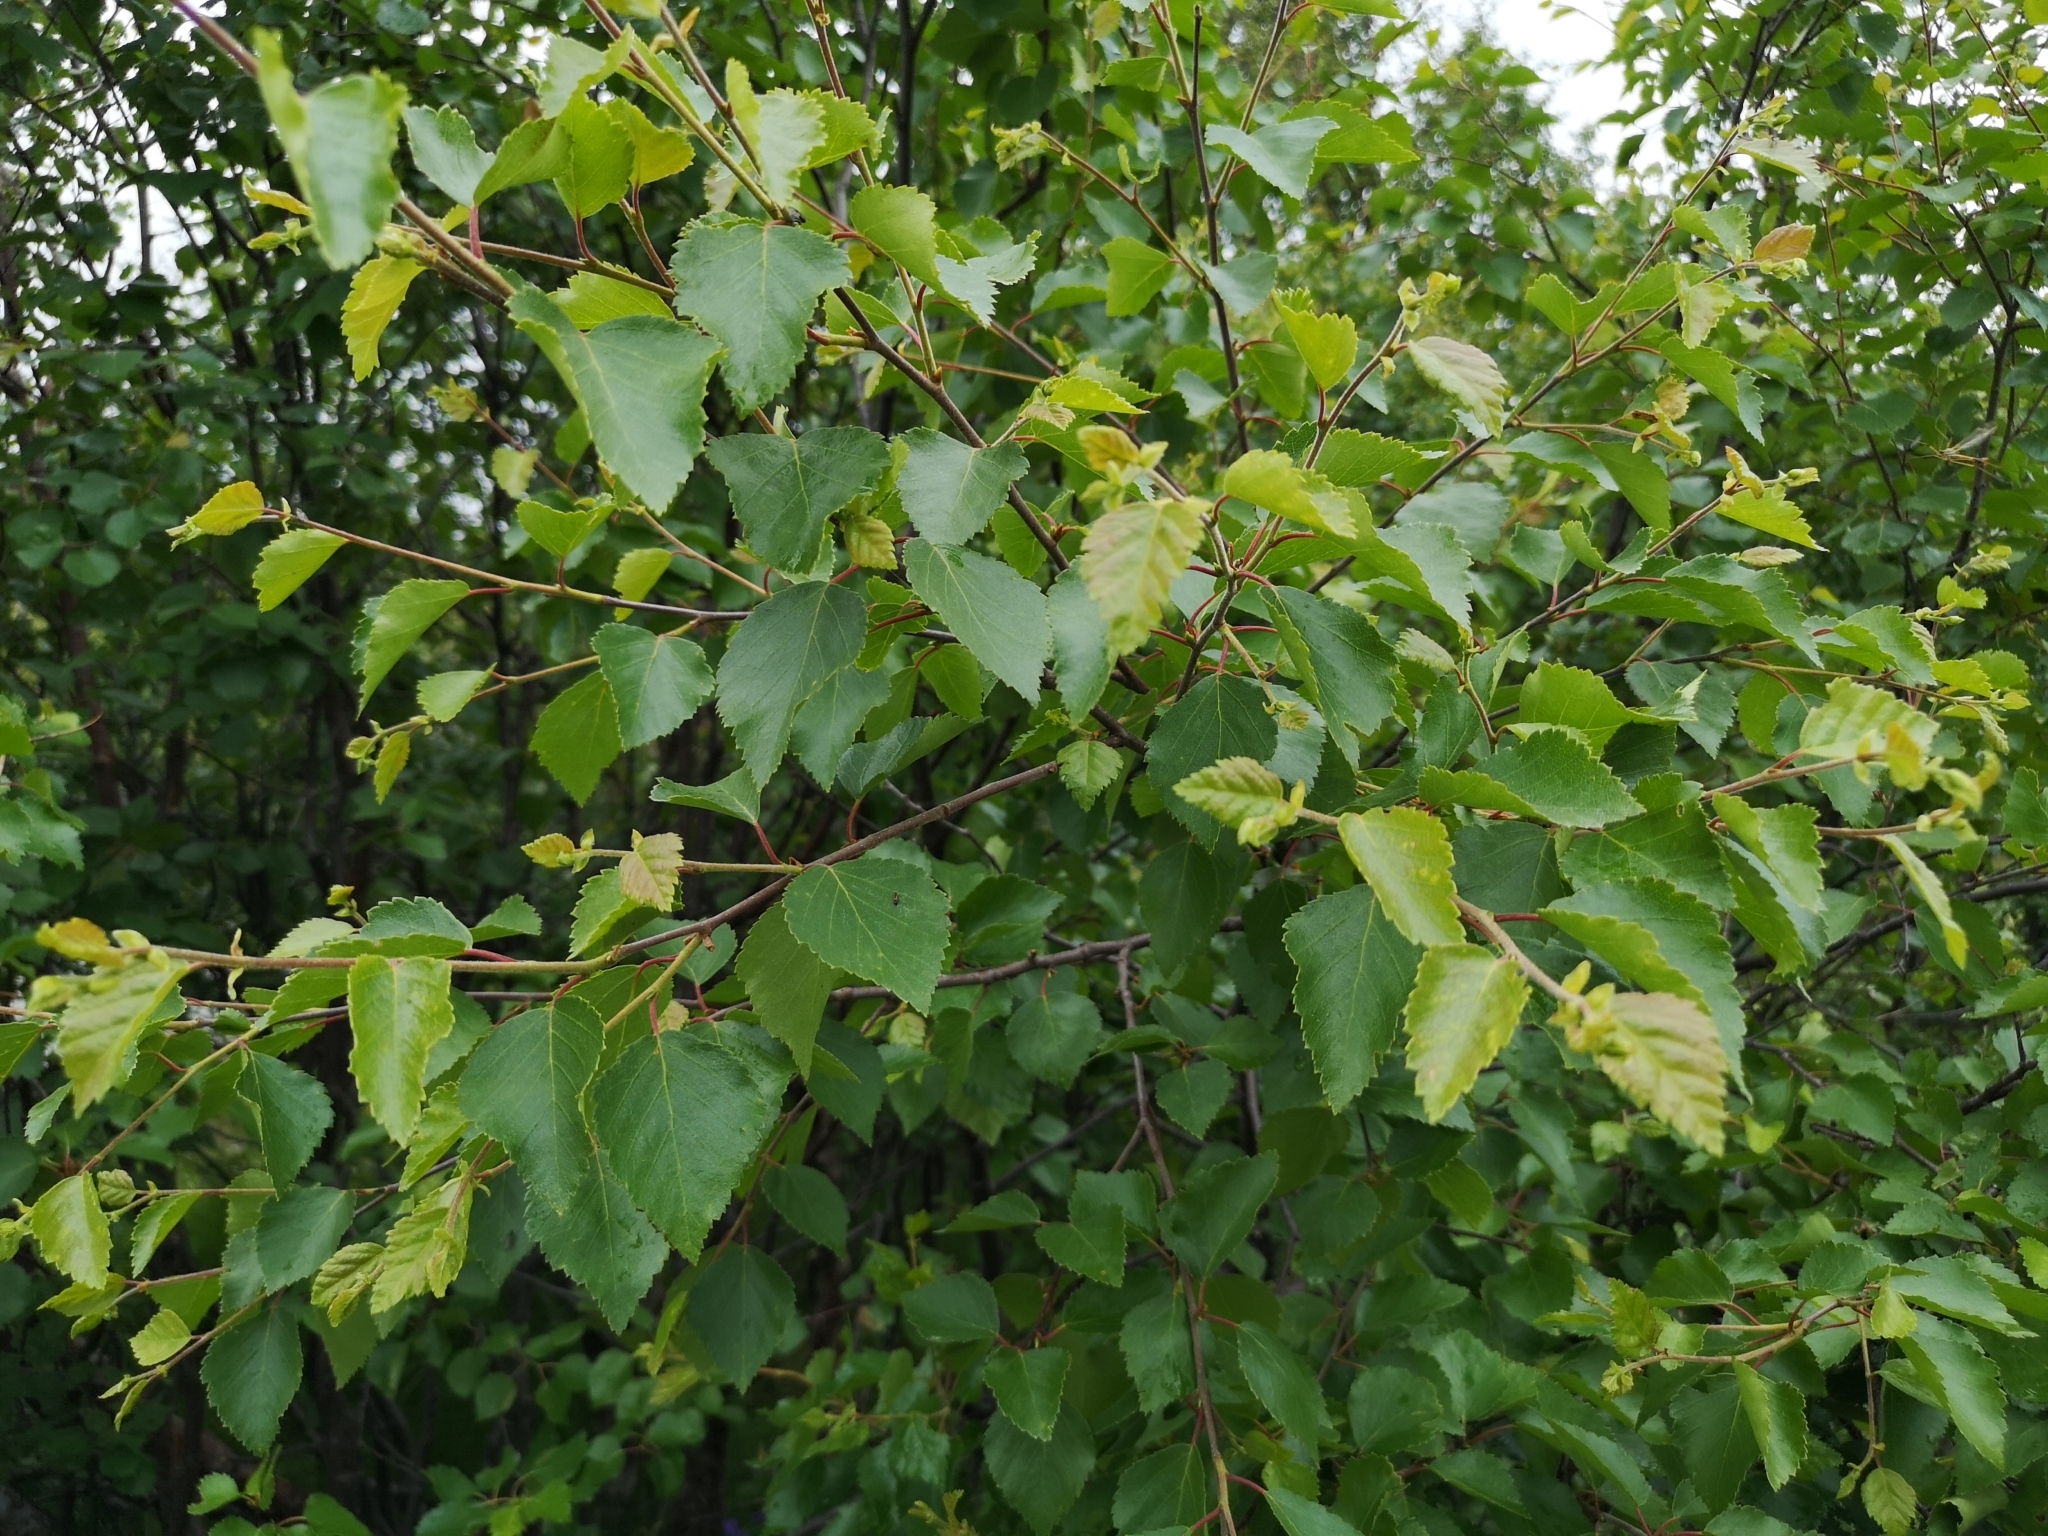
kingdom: Plantae
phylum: Tracheophyta
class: Magnoliopsida
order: Fagales
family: Betulaceae
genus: Betula
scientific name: Betula pubescens
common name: Downy birch
